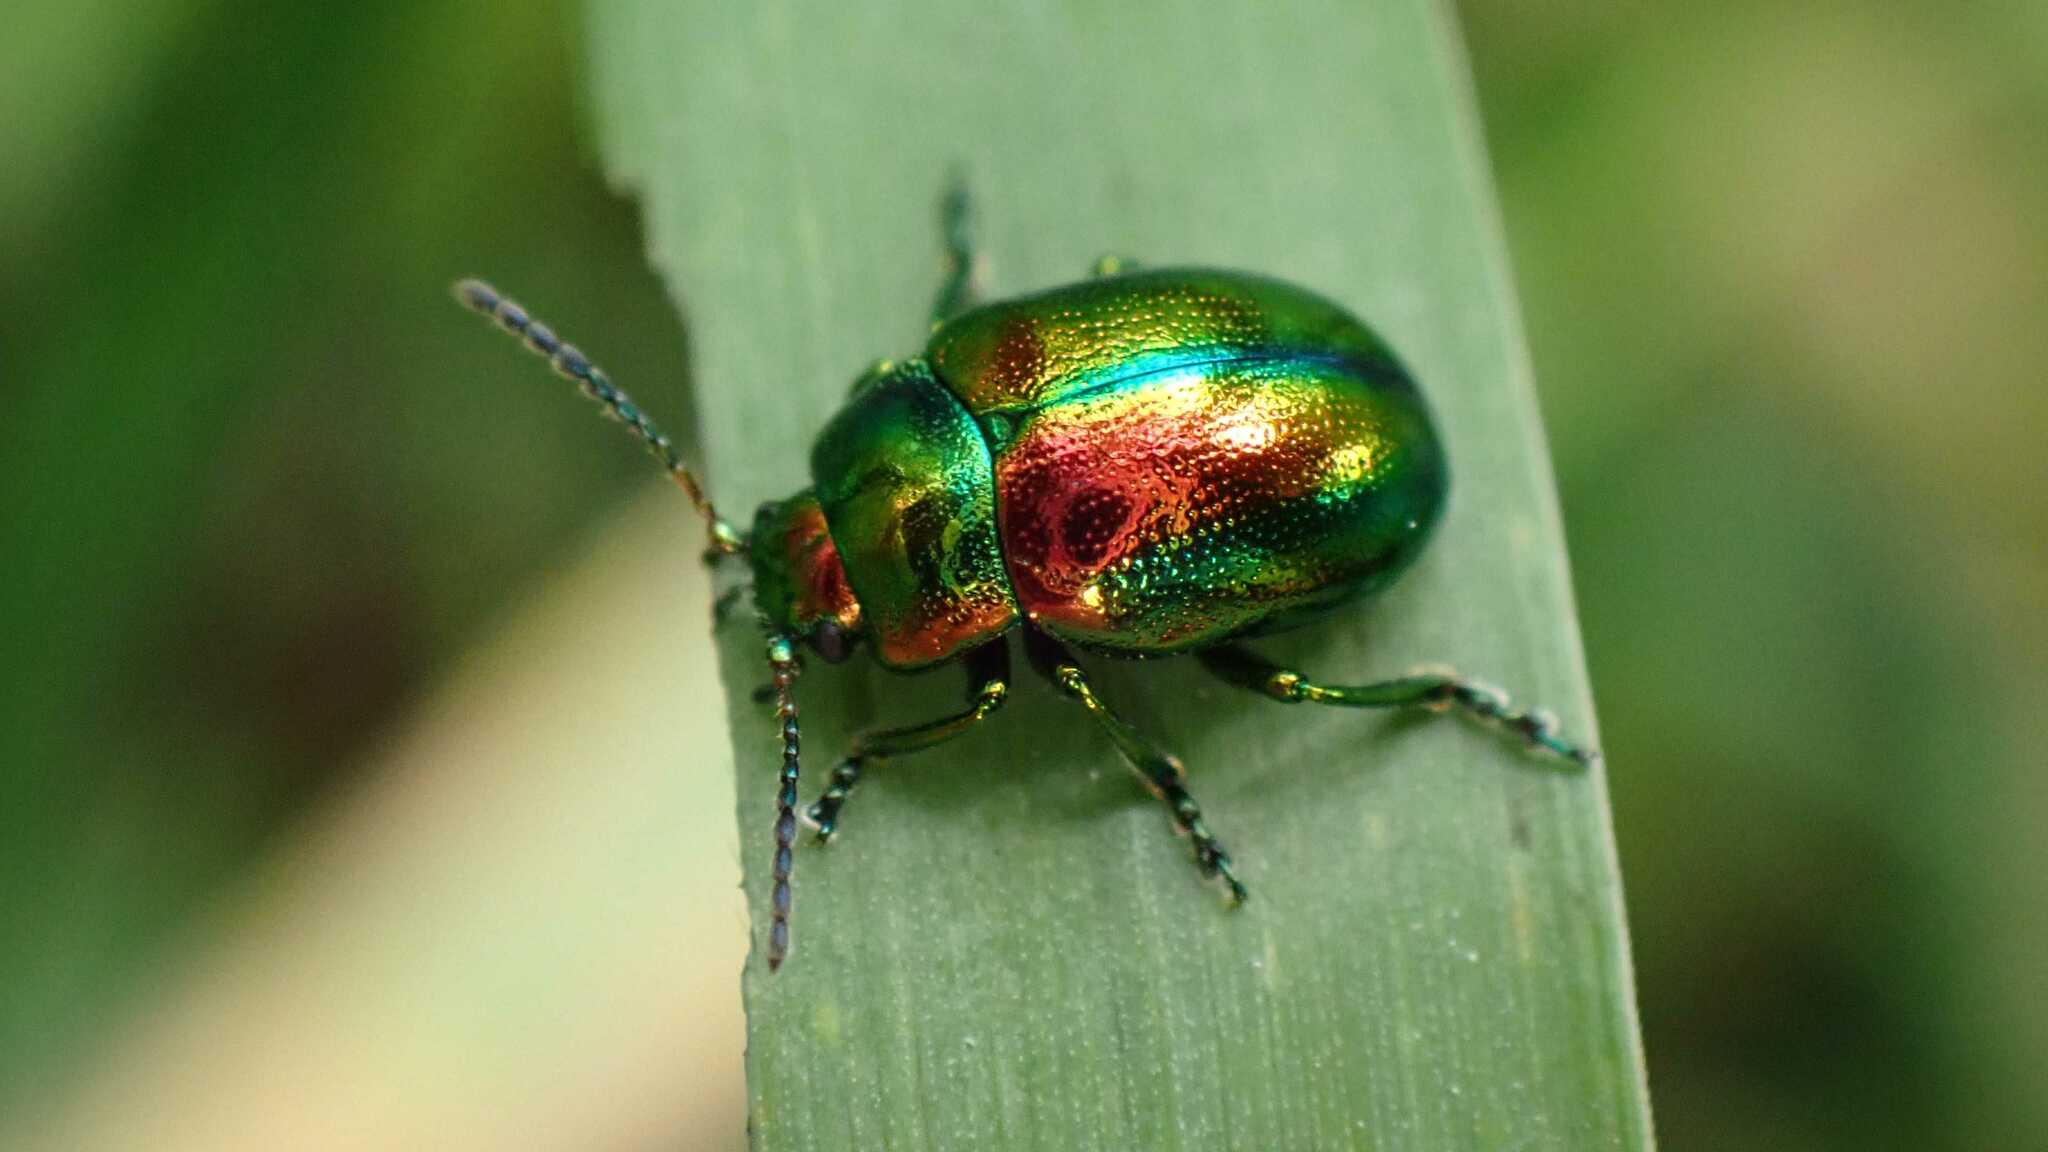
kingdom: Animalia
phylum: Arthropoda
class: Insecta
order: Coleoptera
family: Chrysomelidae
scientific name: Chrysomelidae
